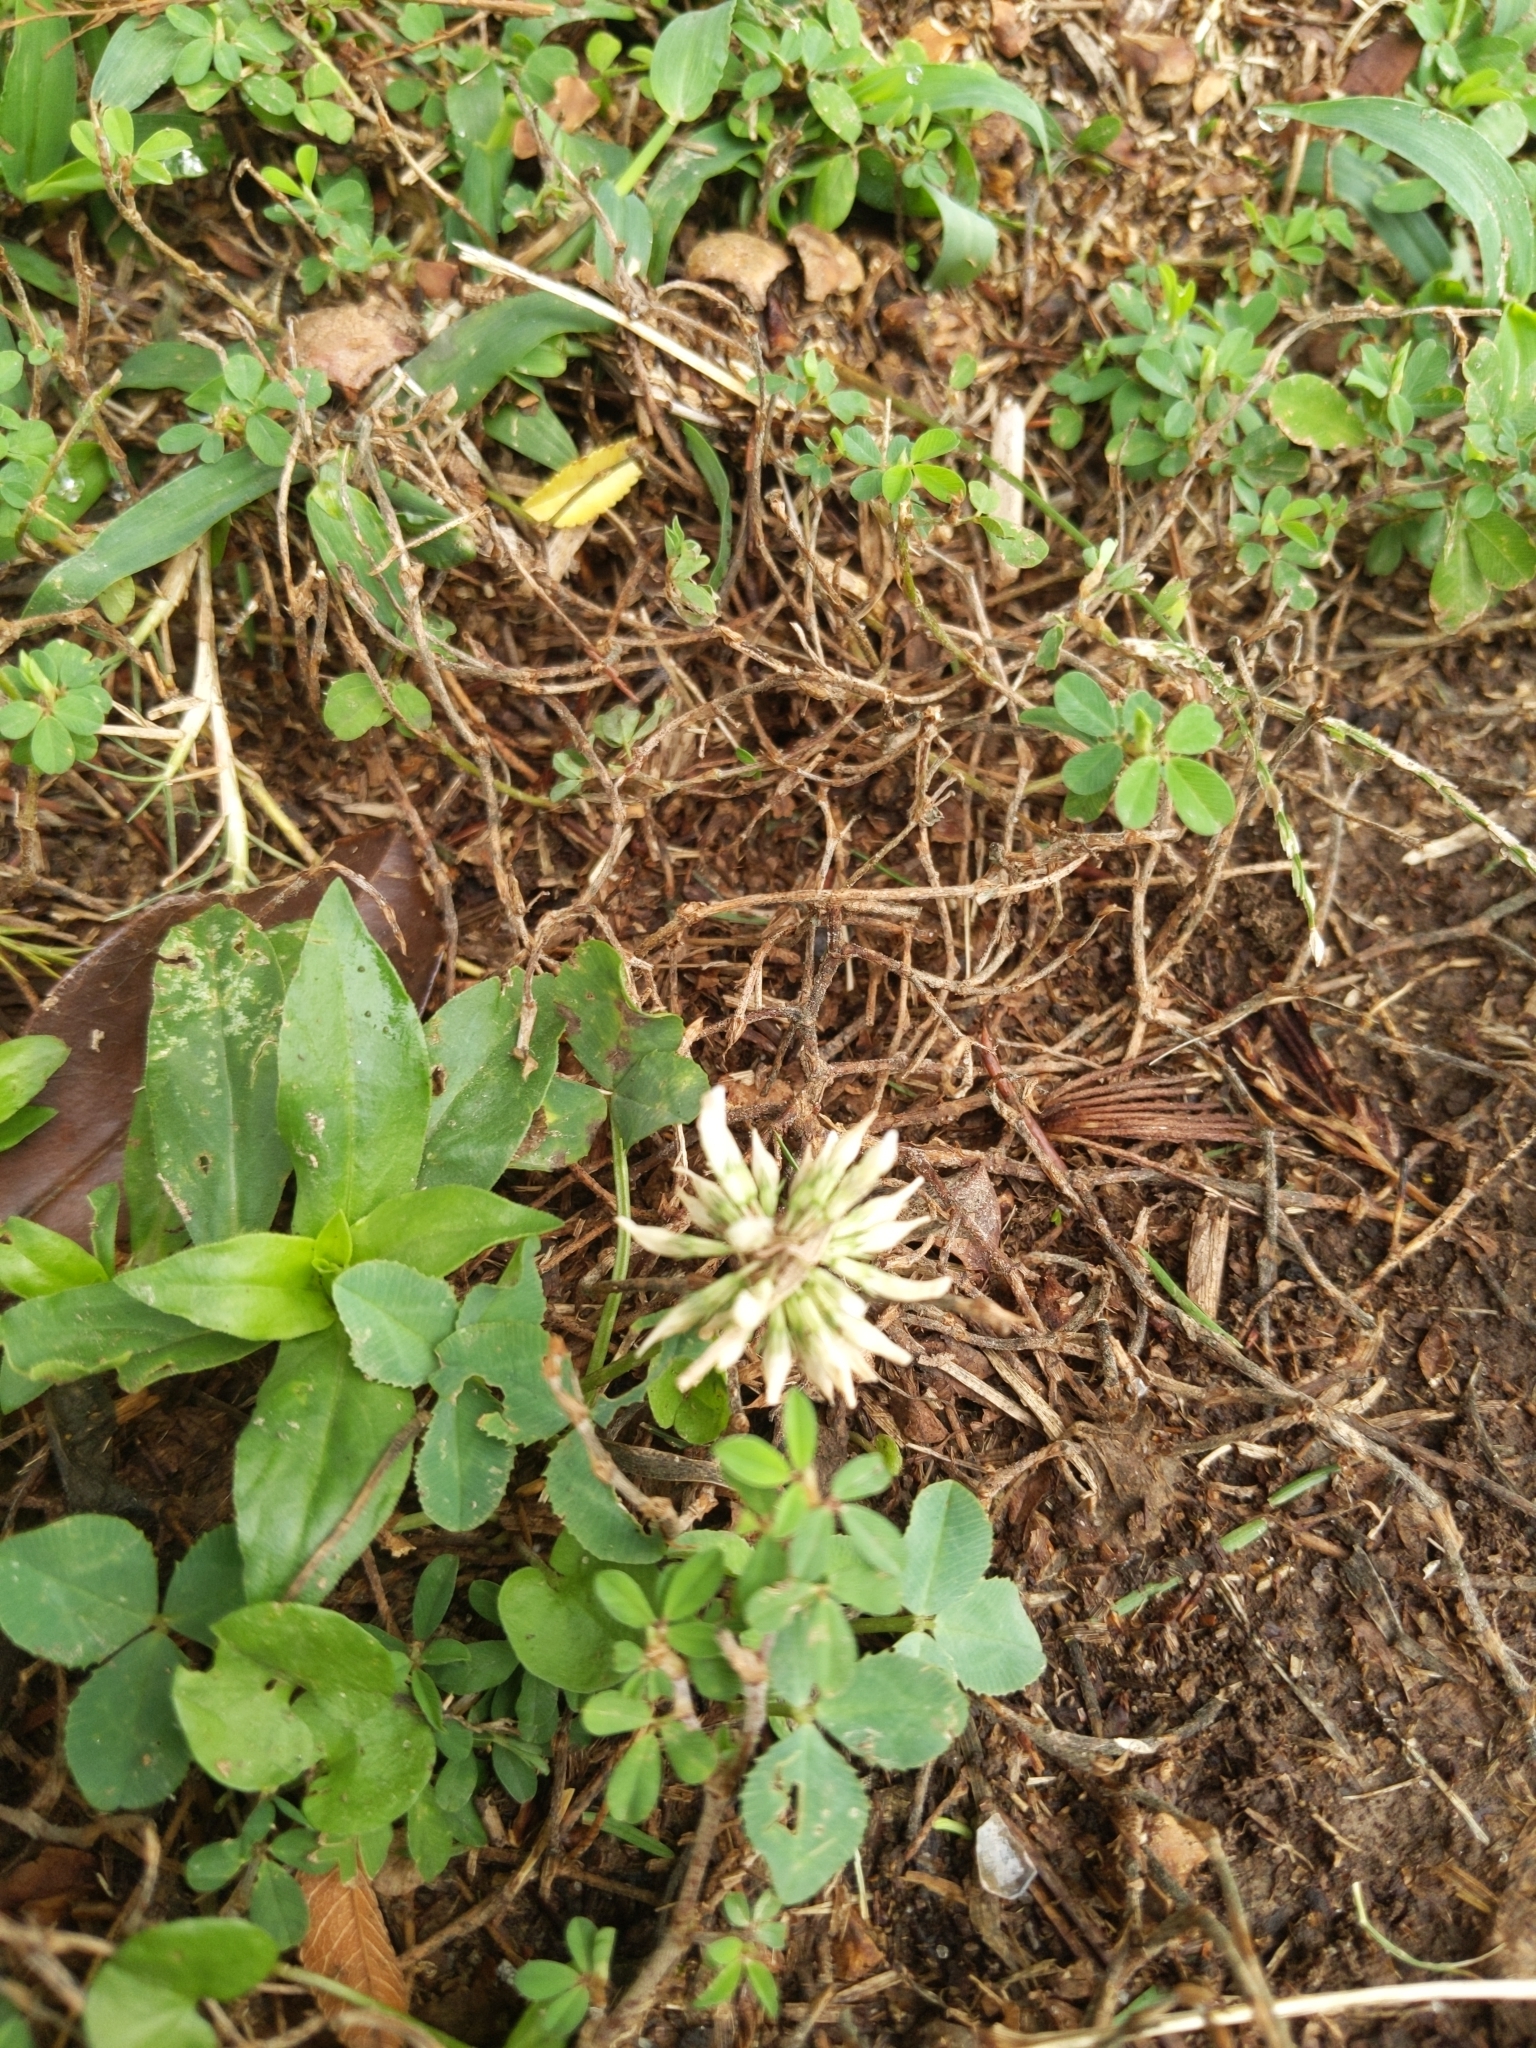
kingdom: Plantae
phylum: Tracheophyta
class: Magnoliopsida
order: Fabales
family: Fabaceae
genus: Trifolium
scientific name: Trifolium repens
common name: White clover
